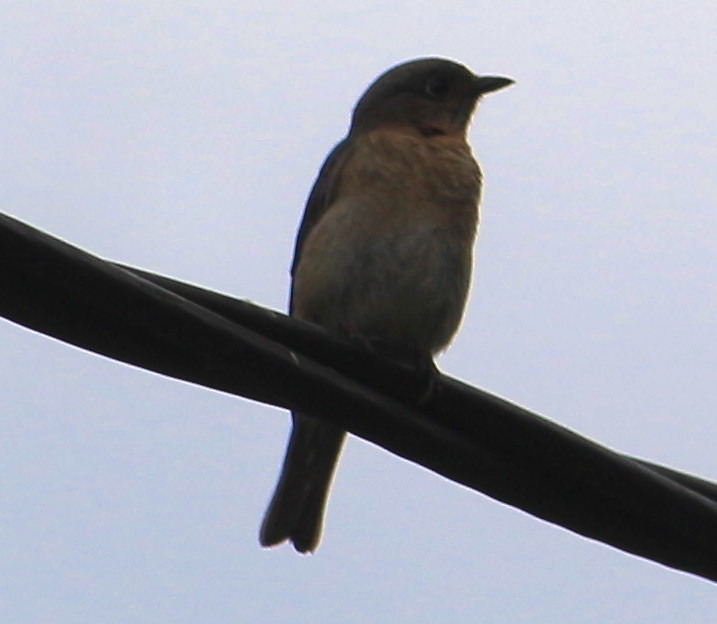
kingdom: Animalia
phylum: Chordata
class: Aves
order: Passeriformes
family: Turdidae
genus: Sialia
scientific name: Sialia sialis
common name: Eastern bluebird
